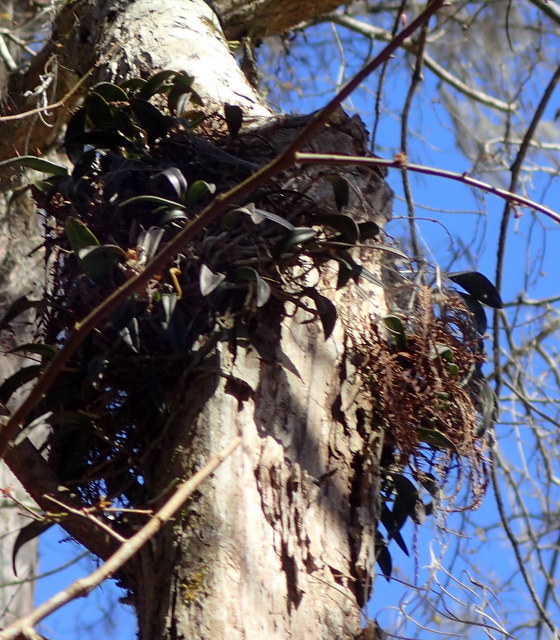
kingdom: Plantae
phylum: Tracheophyta
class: Liliopsida
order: Asparagales
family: Orchidaceae
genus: Epidendrum
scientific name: Epidendrum conopseum
